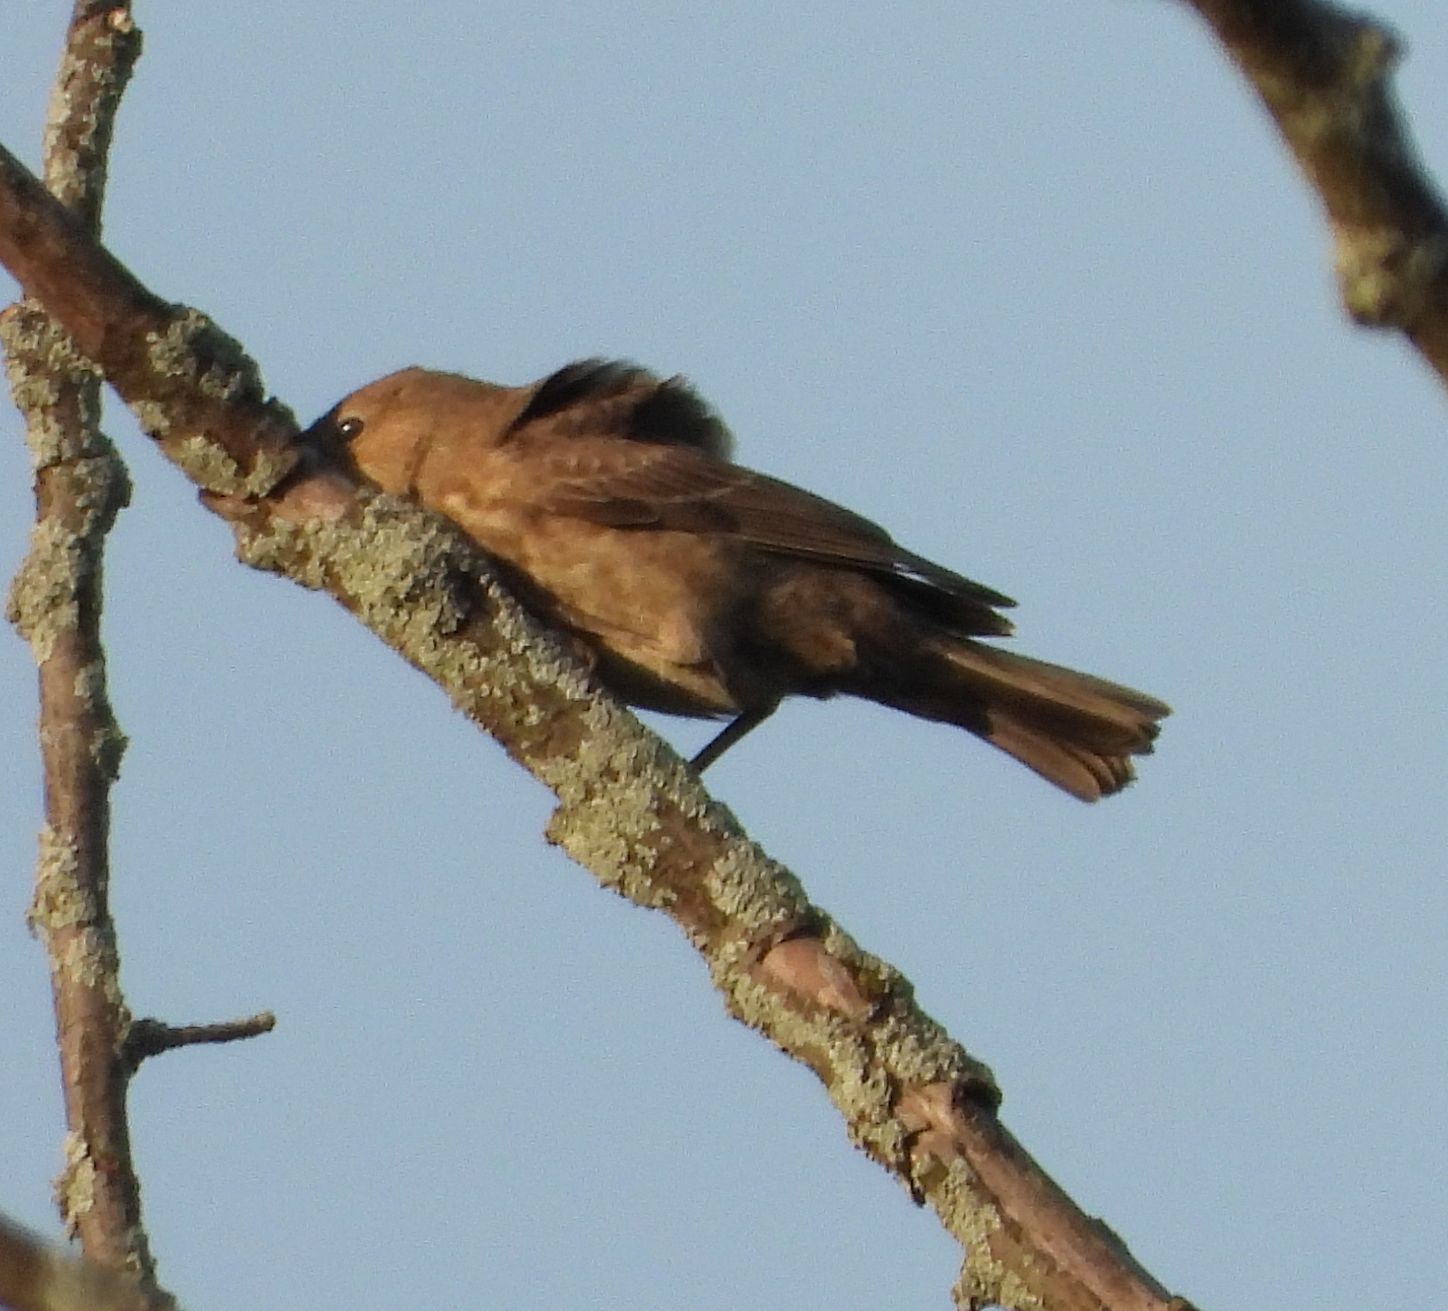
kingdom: Animalia
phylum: Chordata
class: Aves
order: Passeriformes
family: Icteridae
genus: Molothrus
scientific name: Molothrus ater
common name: Brown-headed cowbird
